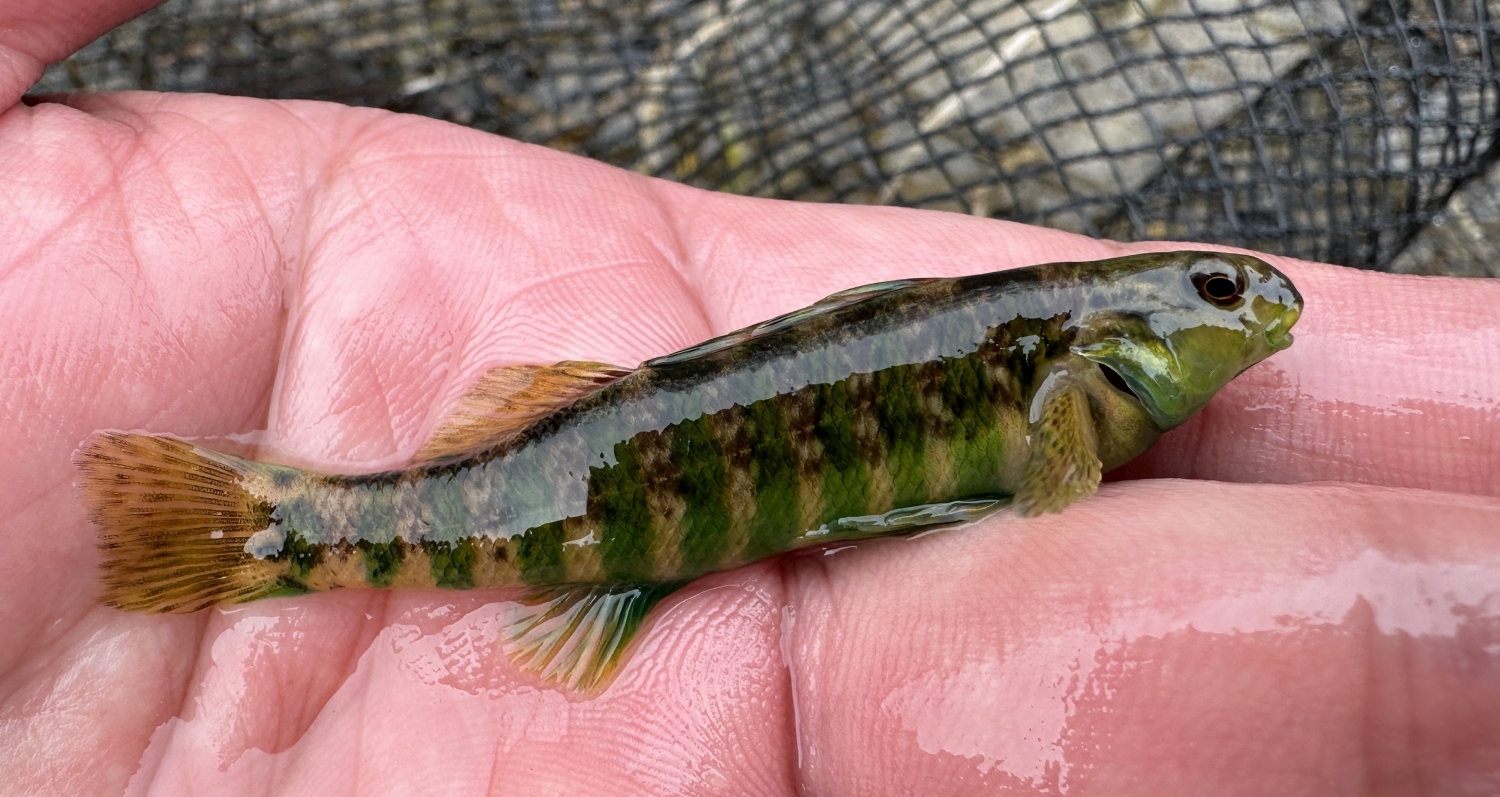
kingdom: Animalia
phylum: Chordata
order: Perciformes
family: Percidae
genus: Etheostoma
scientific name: Etheostoma zonale
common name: Banded darter
